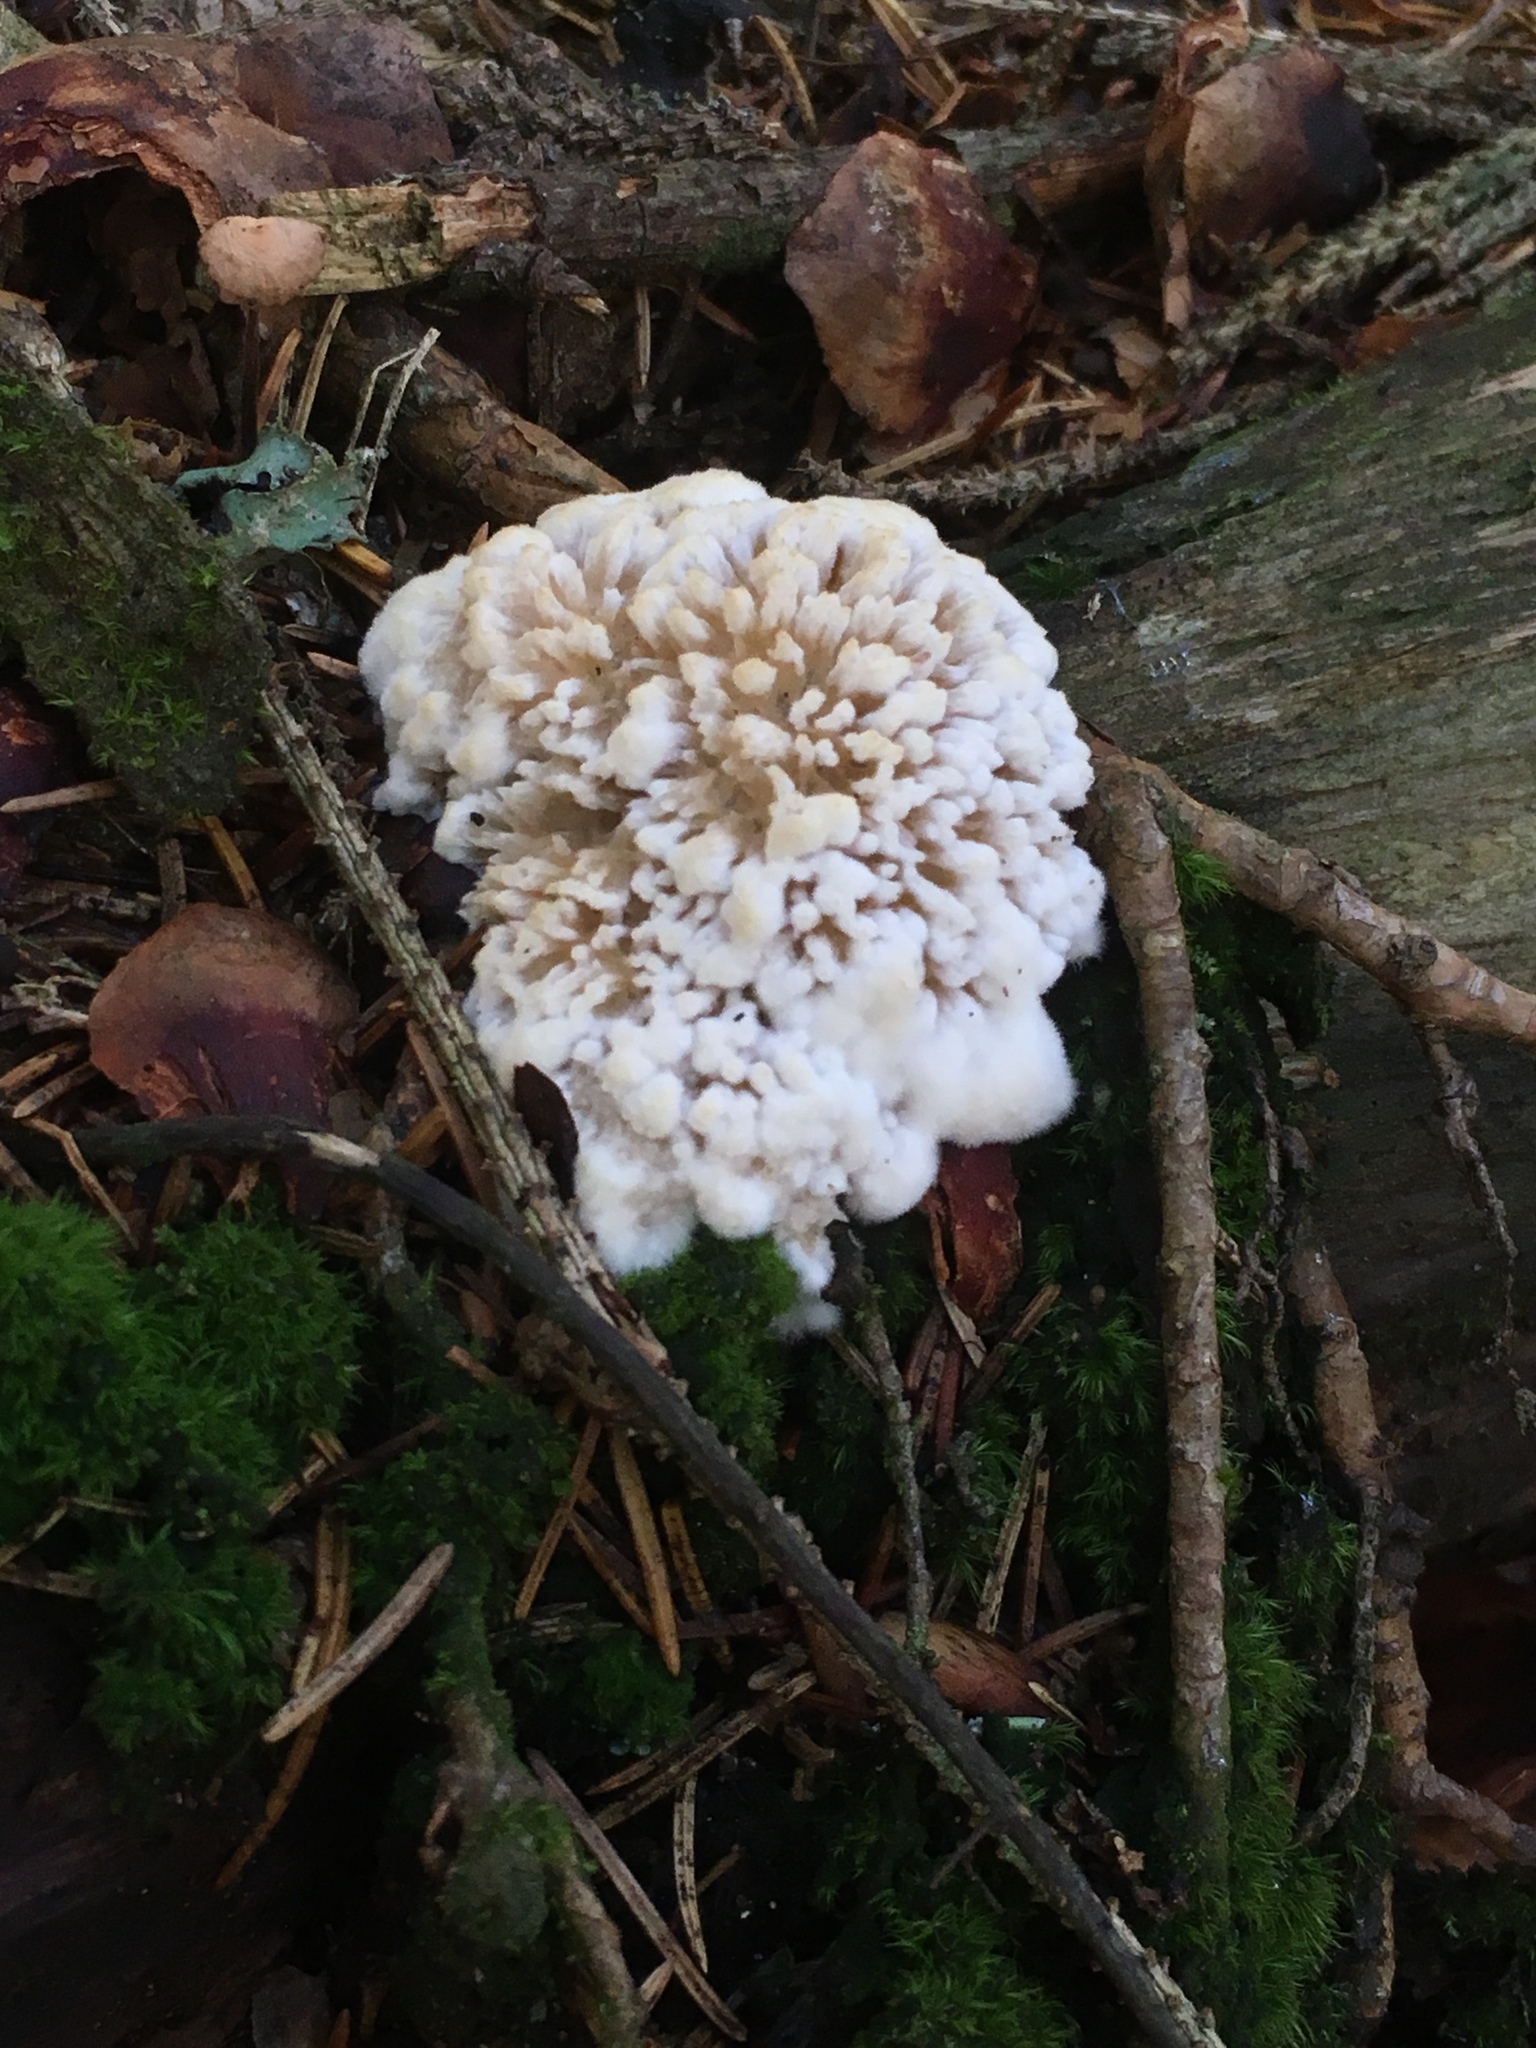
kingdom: Fungi
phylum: Basidiomycota
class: Agaricomycetes
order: Polyporales
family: Podoscyphaceae
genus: Abortiporus
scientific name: Abortiporus biennis
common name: Blushing rosette
